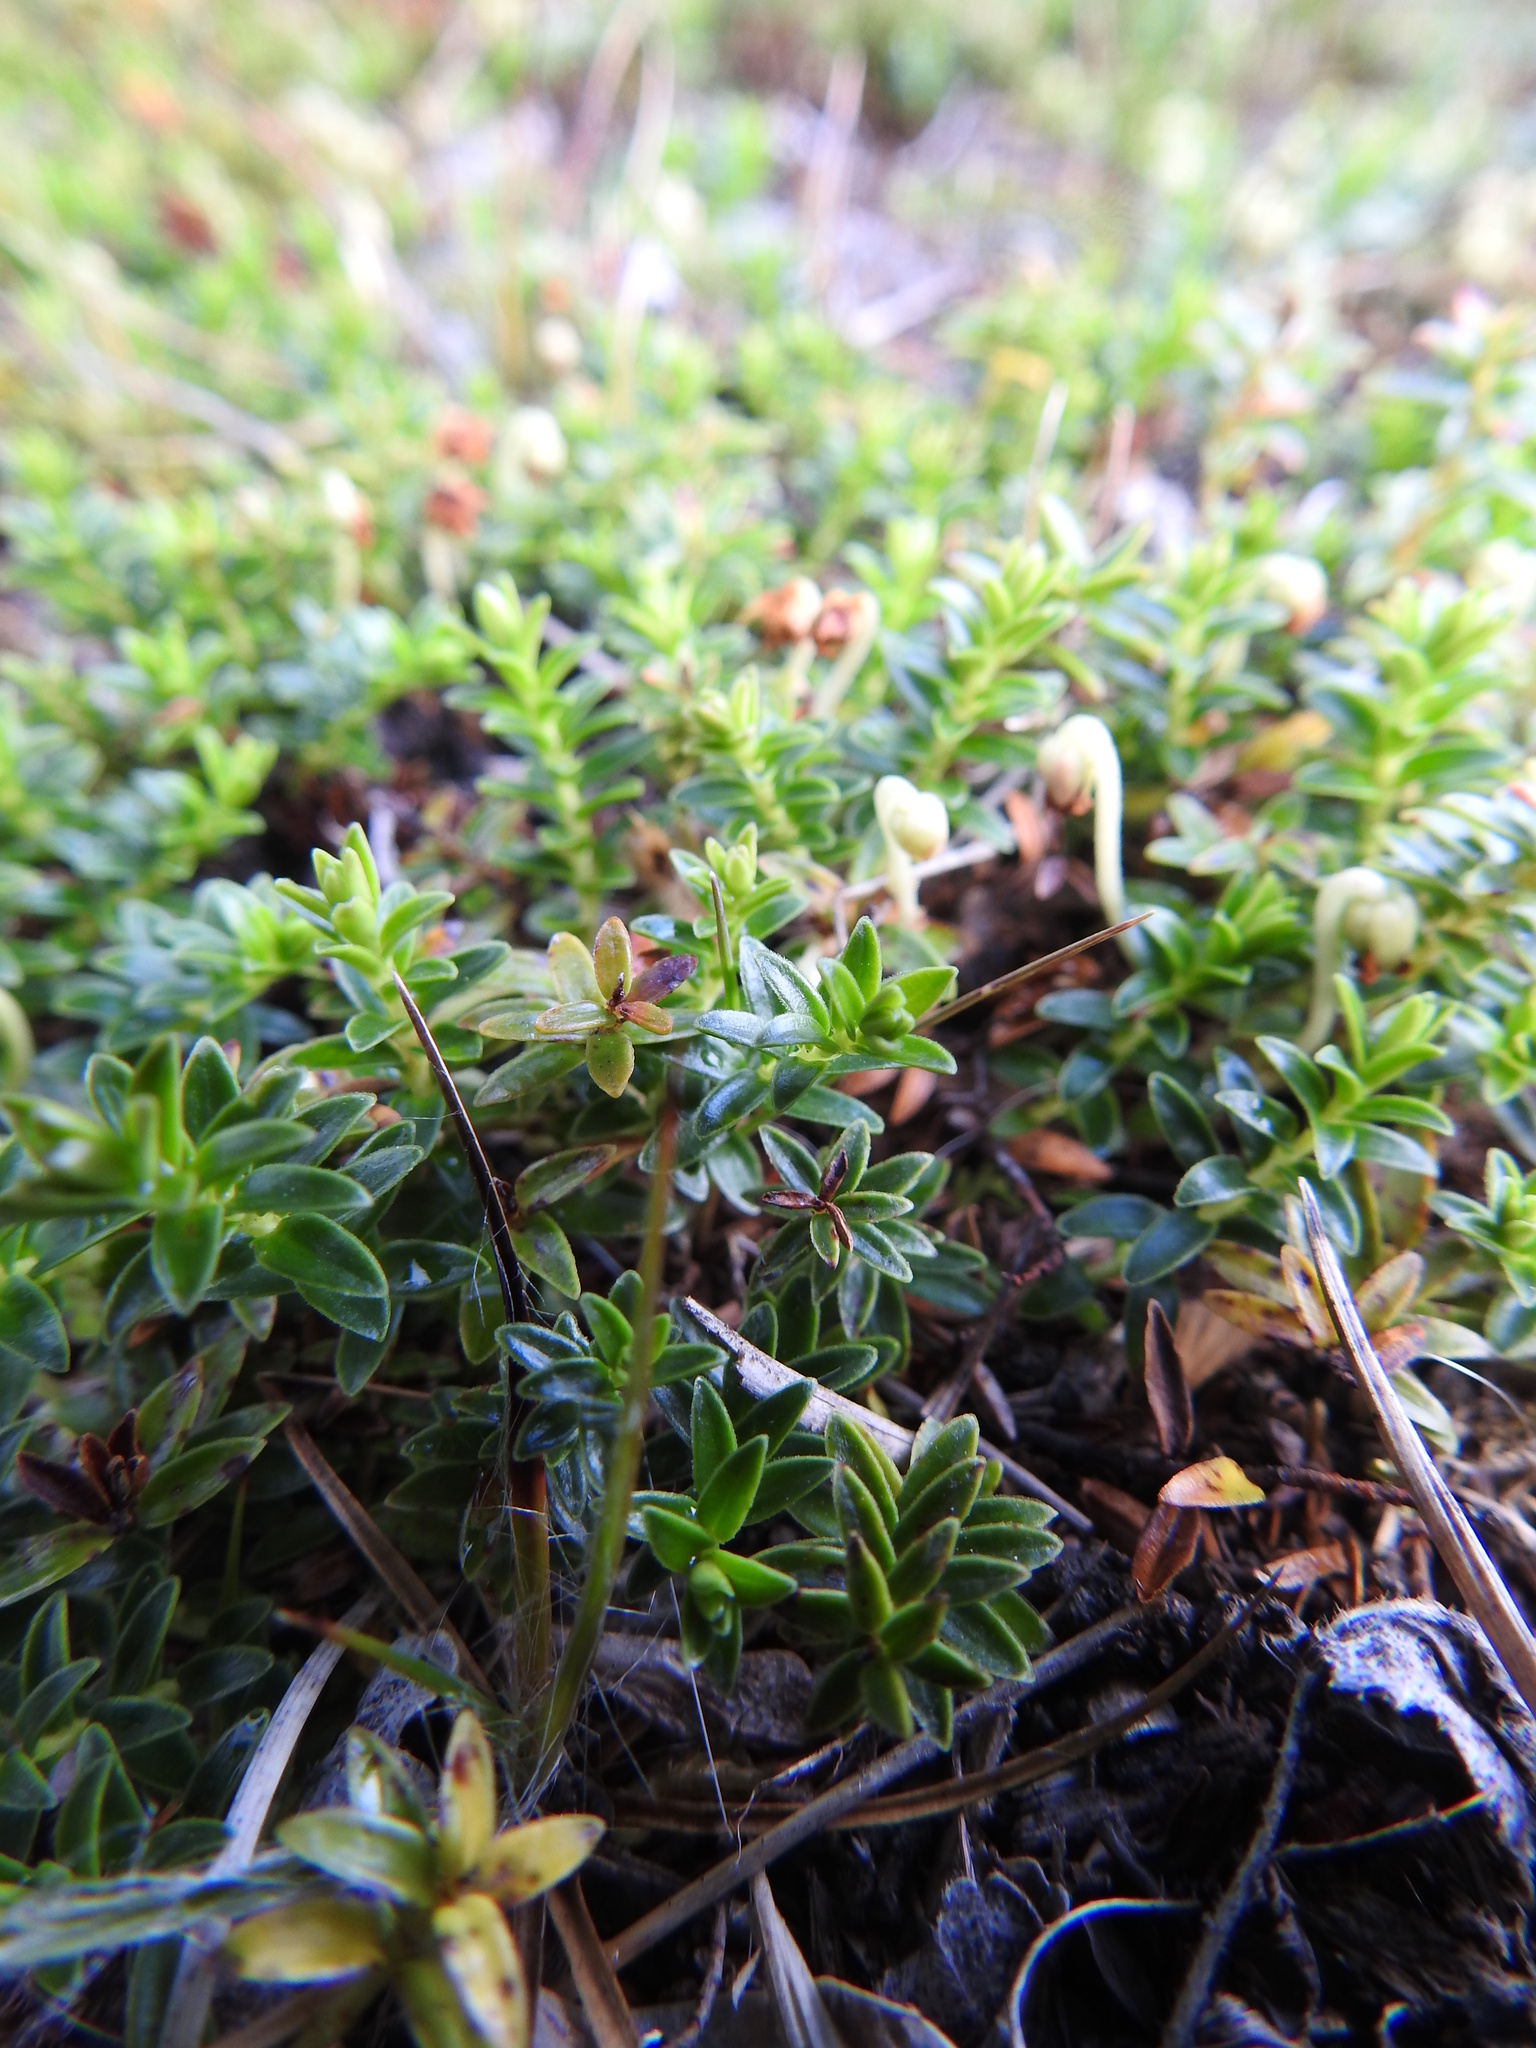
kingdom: Plantae
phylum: Tracheophyta
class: Magnoliopsida
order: Ericales
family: Ericaceae
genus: Gaultheria
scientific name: Gaultheria pumila
